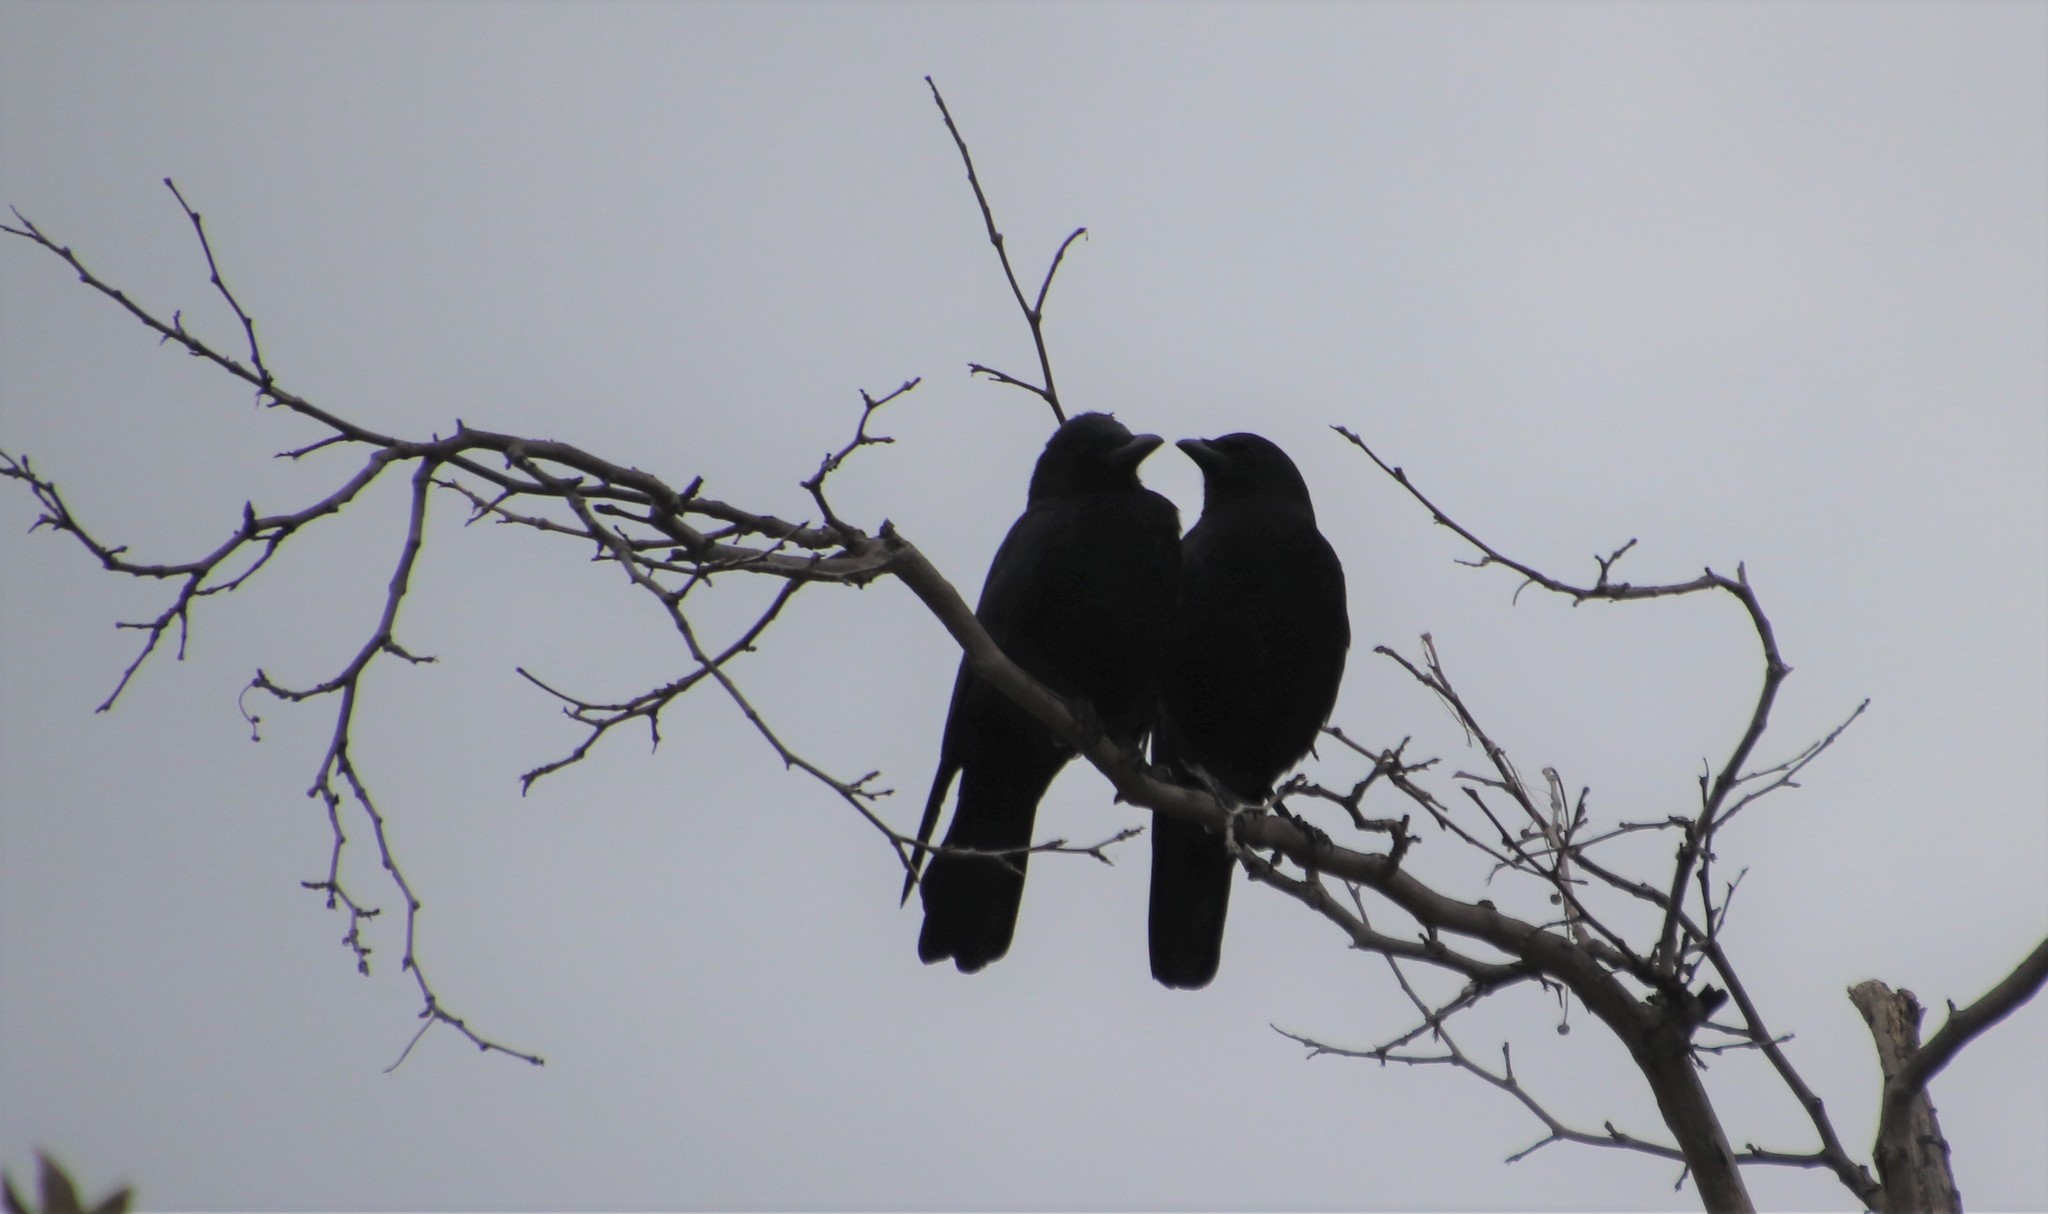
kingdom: Animalia
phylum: Chordata
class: Aves
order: Passeriformes
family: Corvidae
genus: Corvus
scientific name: Corvus brachyrhynchos
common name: American crow
